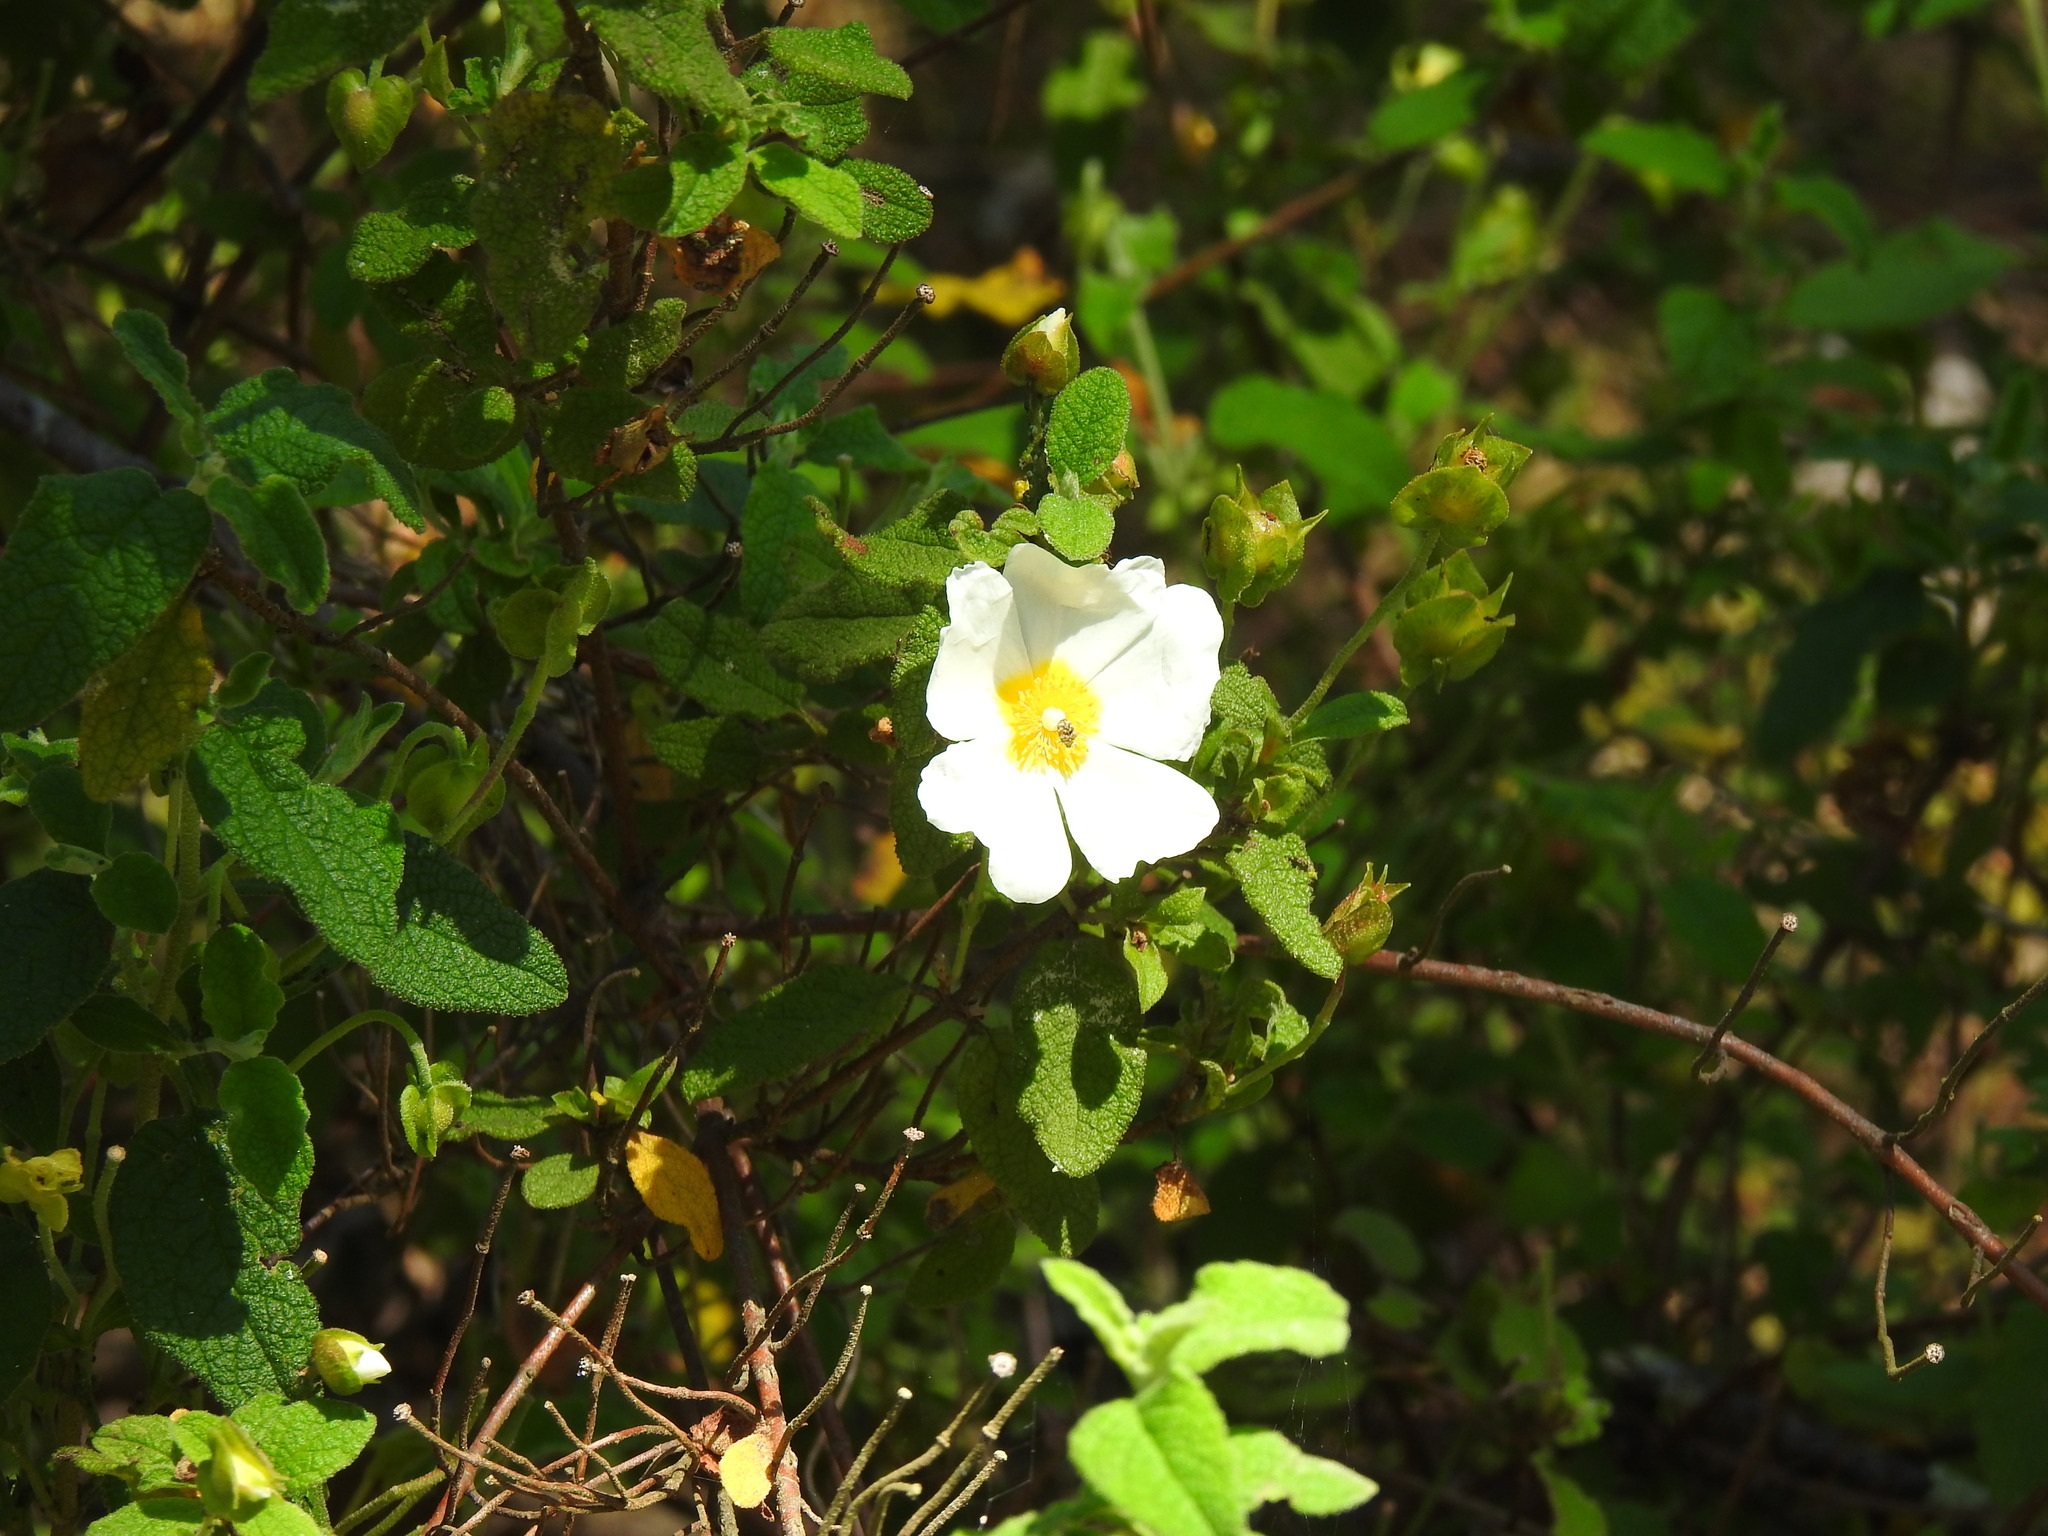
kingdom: Plantae
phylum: Tracheophyta
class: Magnoliopsida
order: Malvales
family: Cistaceae
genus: Cistus
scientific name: Cistus salviifolius
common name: Salvia cistus
